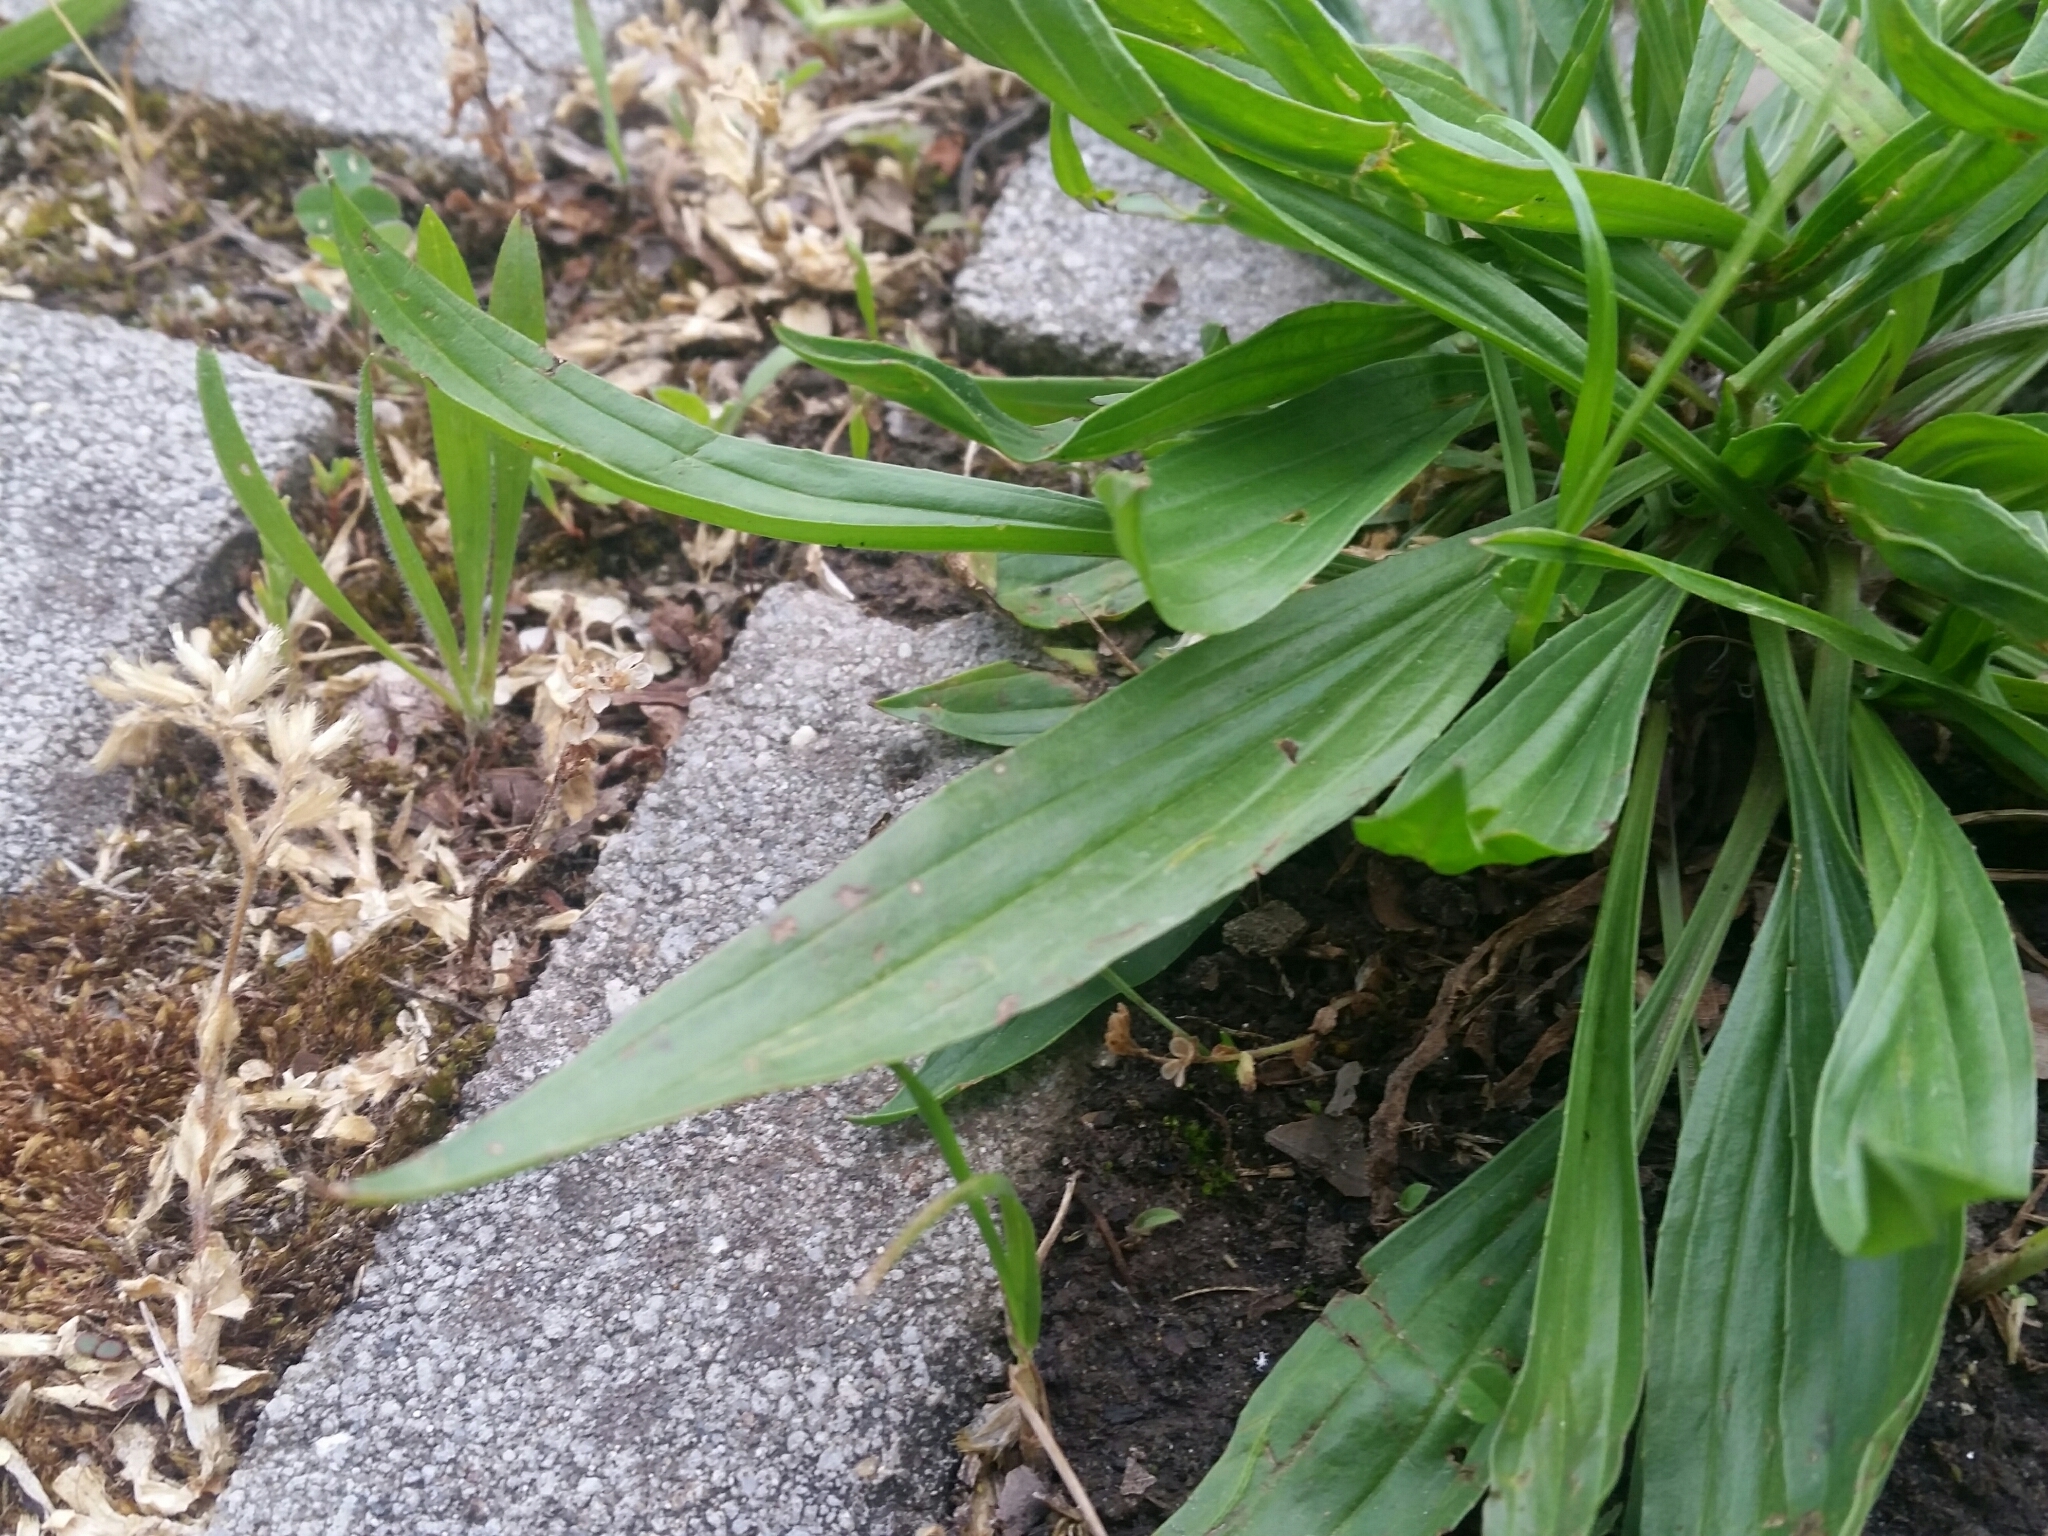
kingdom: Plantae
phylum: Tracheophyta
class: Magnoliopsida
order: Lamiales
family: Plantaginaceae
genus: Plantago
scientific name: Plantago lanceolata
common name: Ribwort plantain
